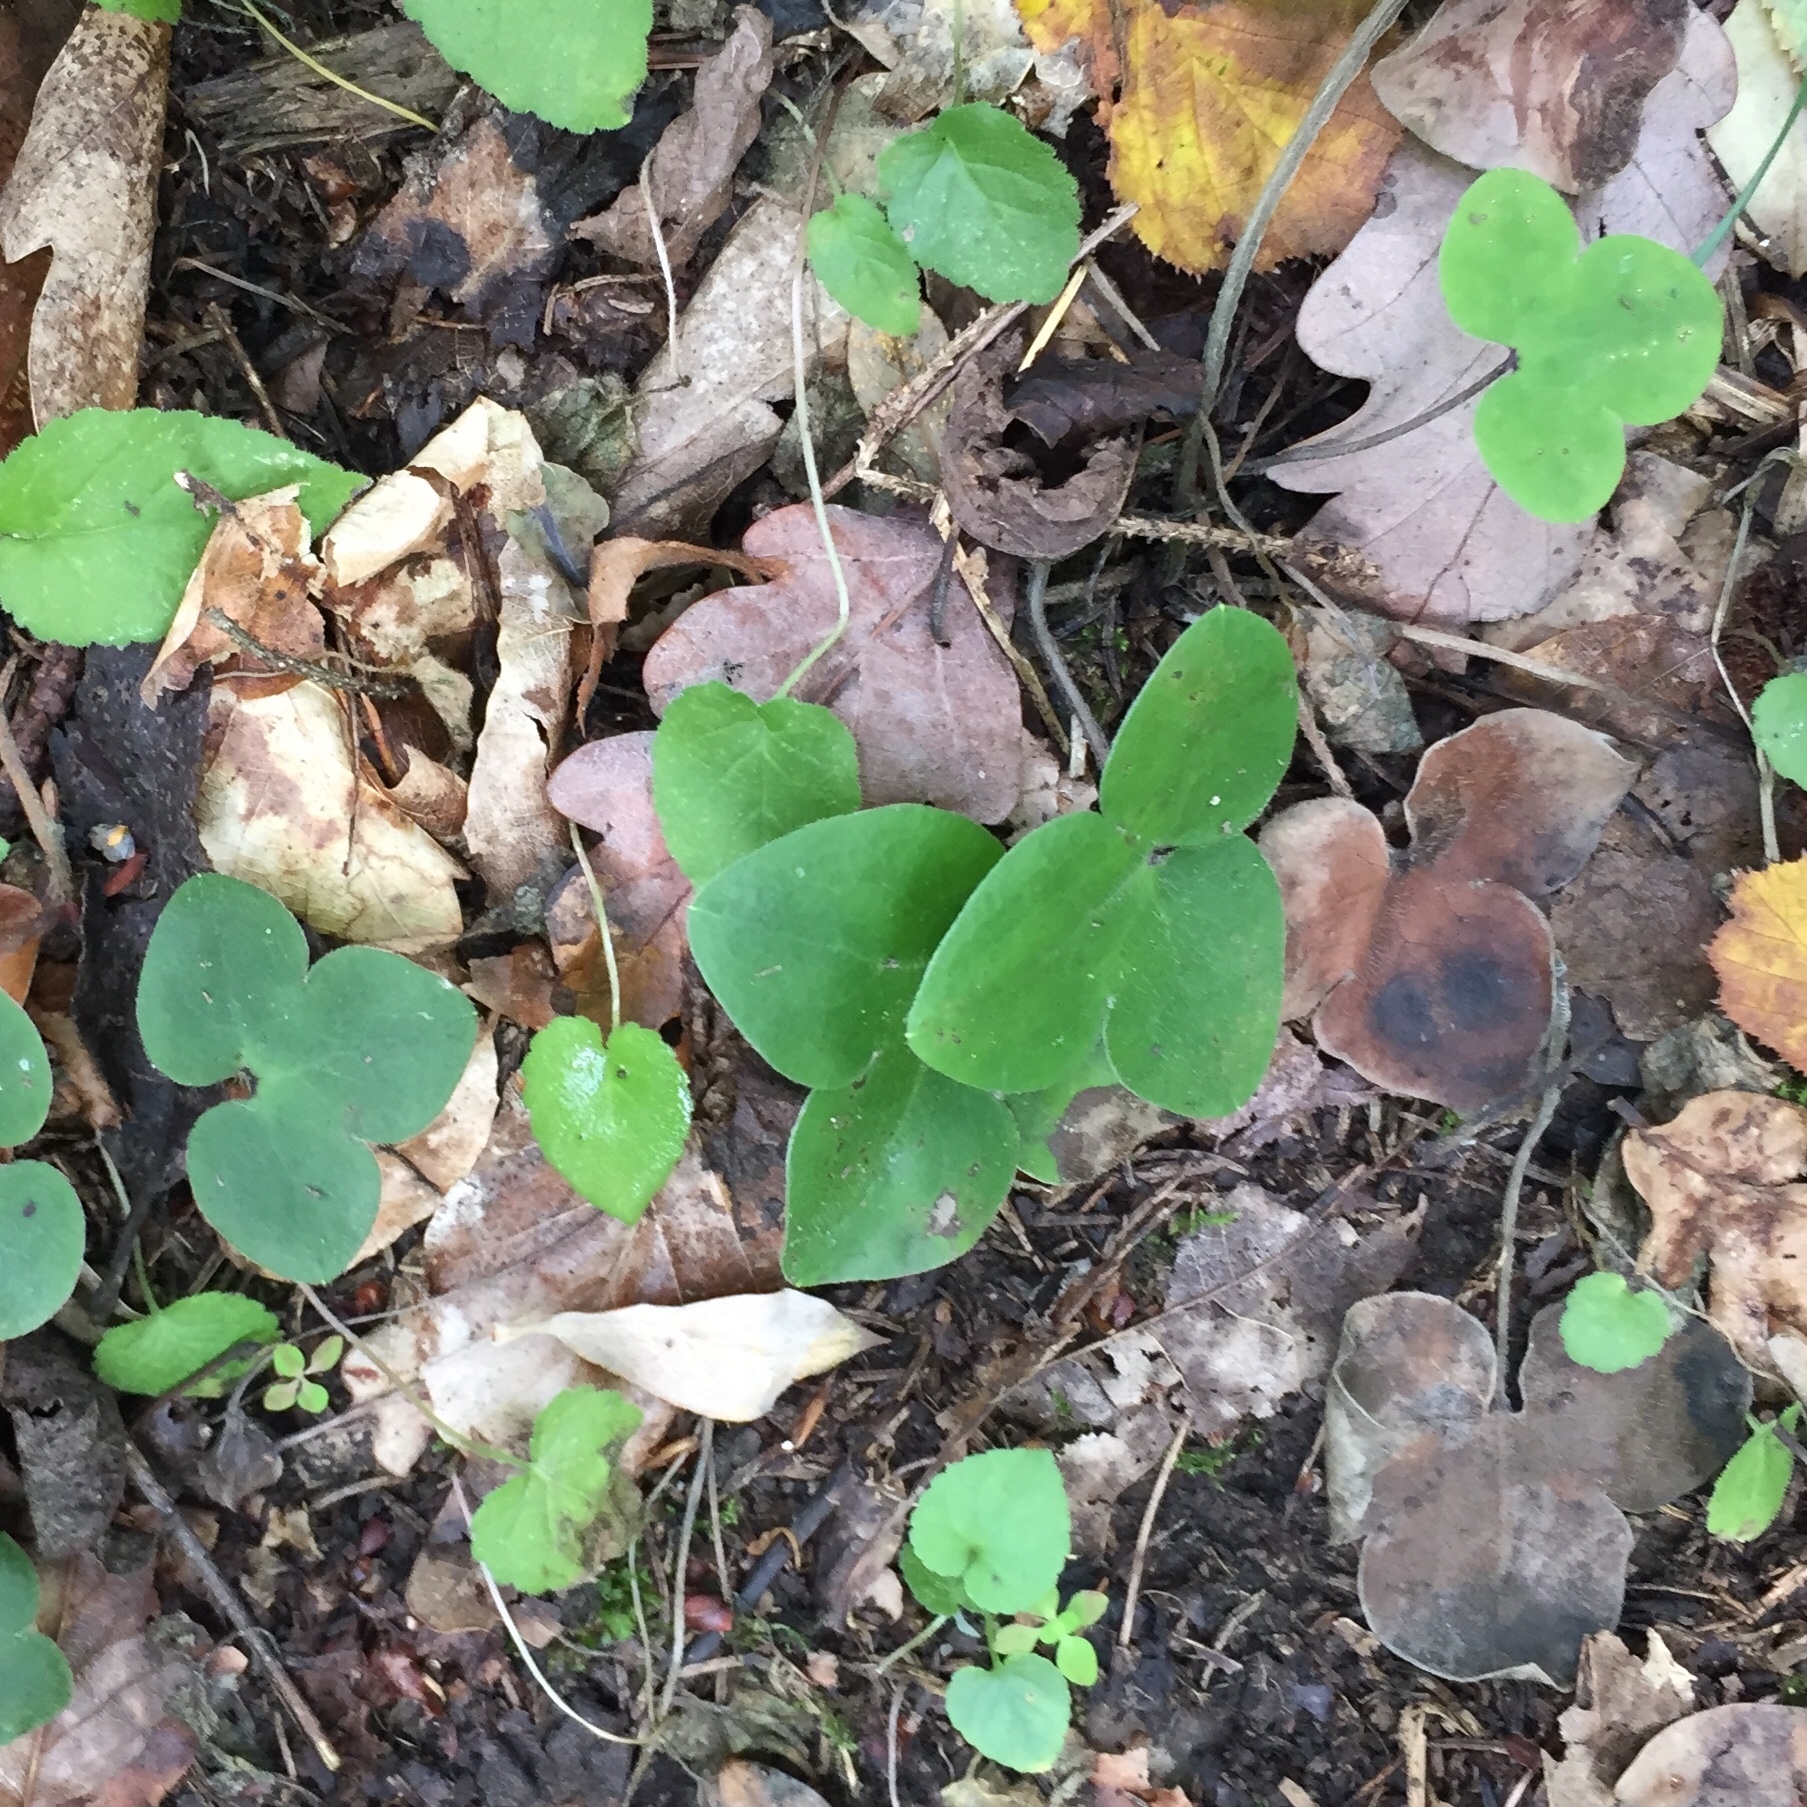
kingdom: Plantae
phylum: Tracheophyta
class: Magnoliopsida
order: Ranunculales
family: Ranunculaceae
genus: Hepatica
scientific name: Hepatica nobilis
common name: Liverleaf
